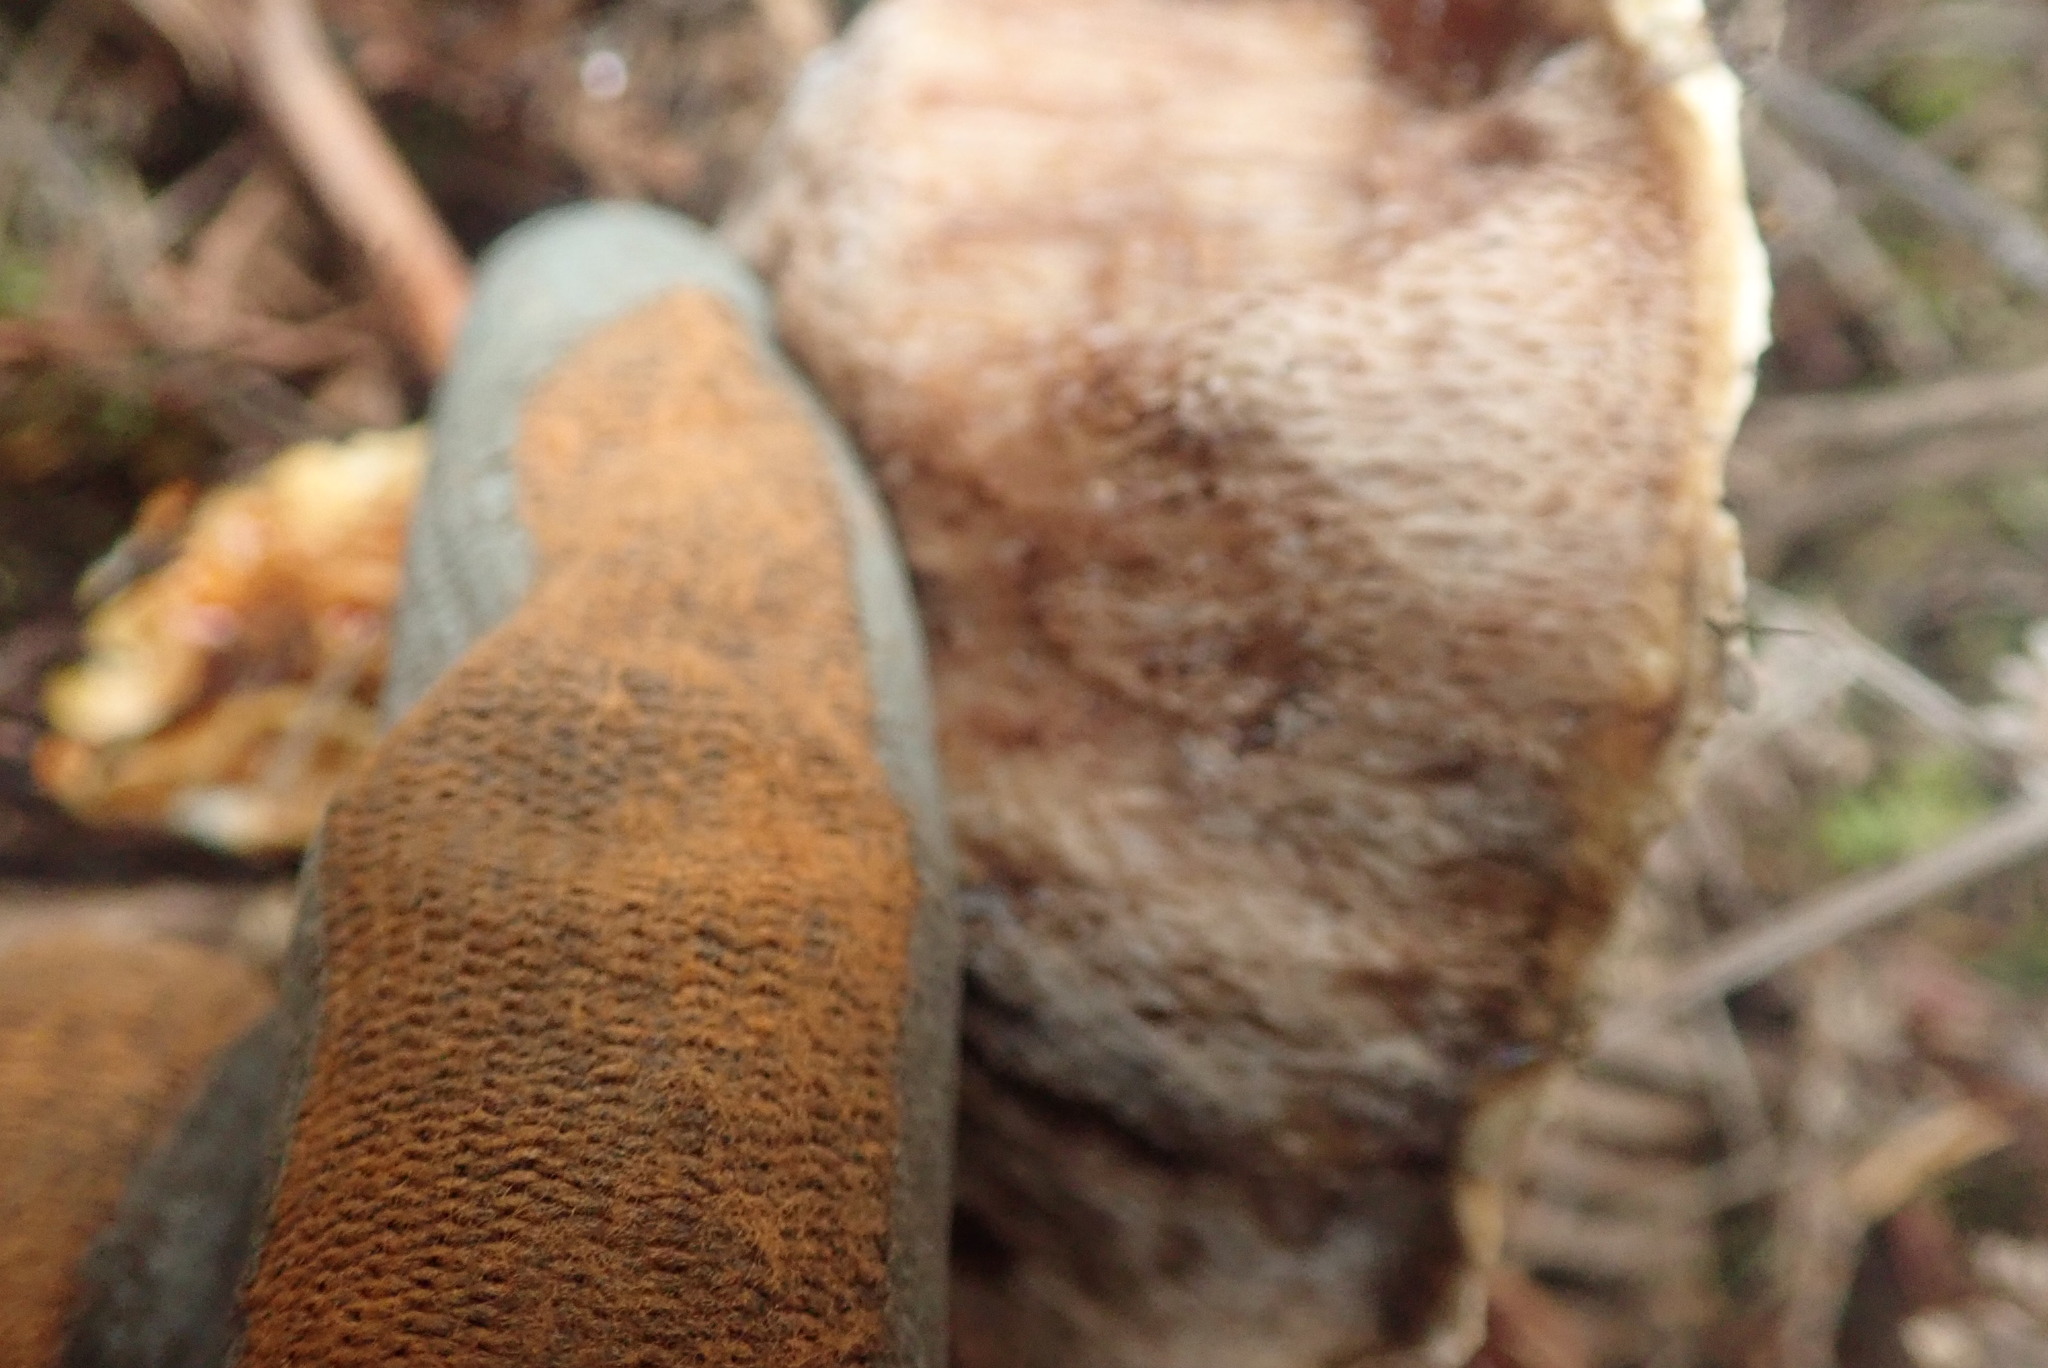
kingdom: Fungi
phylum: Basidiomycota
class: Agaricomycetes
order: Boletales
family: Boletaceae
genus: Austroboletus
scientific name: Austroboletus lacunosus
